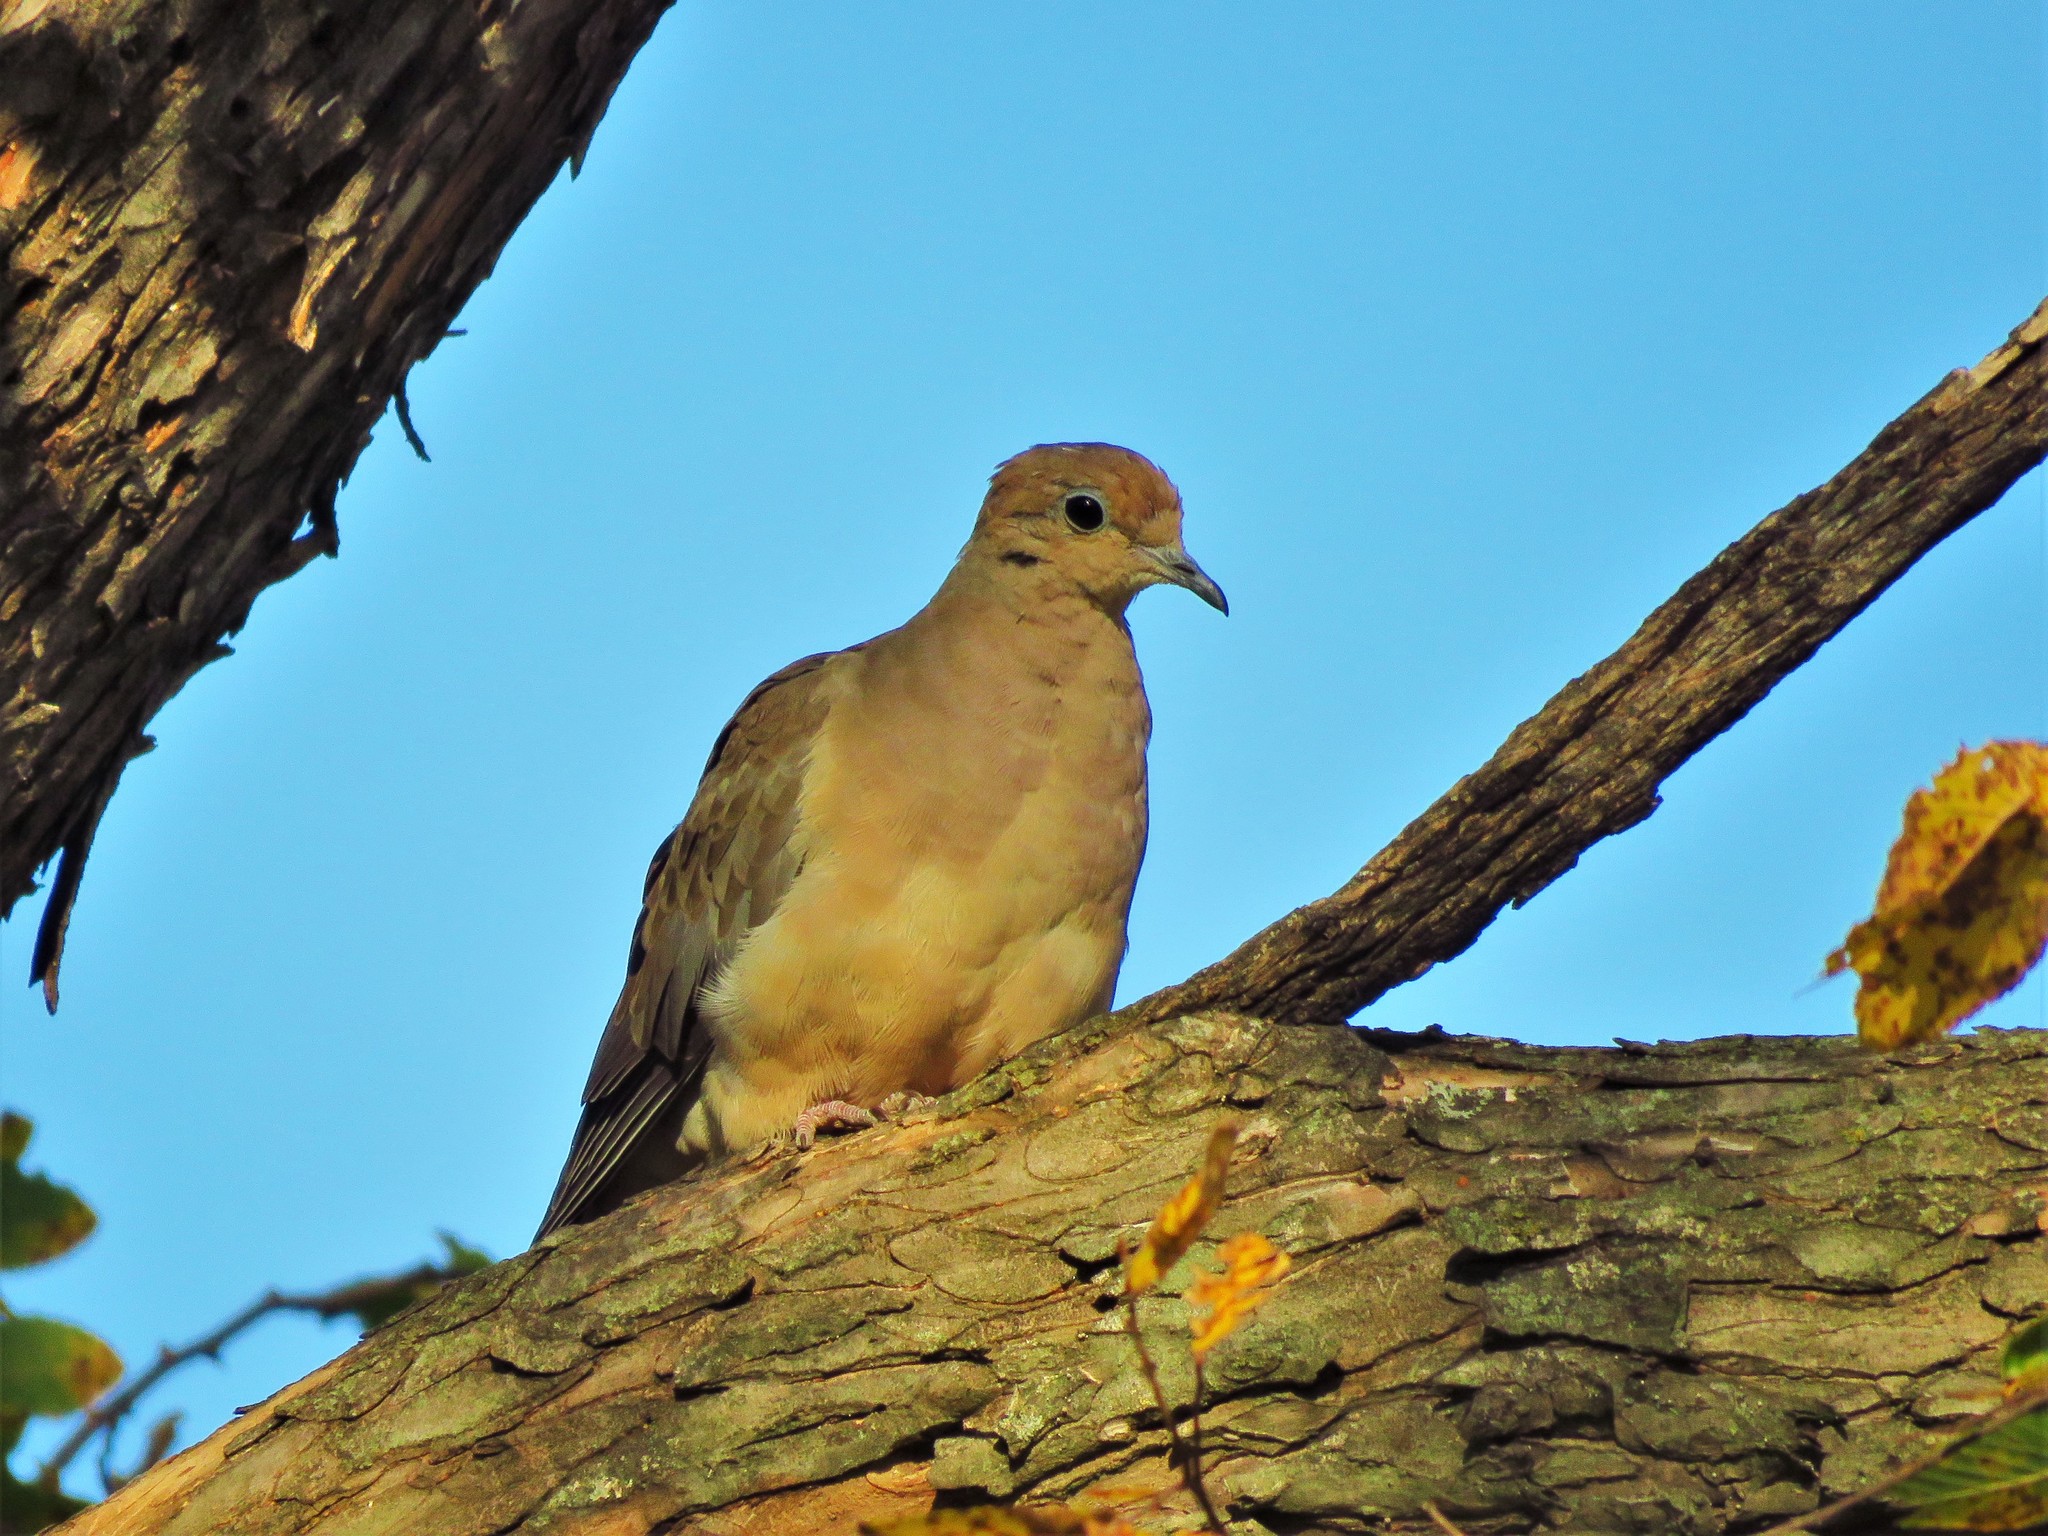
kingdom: Animalia
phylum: Chordata
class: Aves
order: Columbiformes
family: Columbidae
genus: Zenaida
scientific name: Zenaida macroura
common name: Mourning dove
